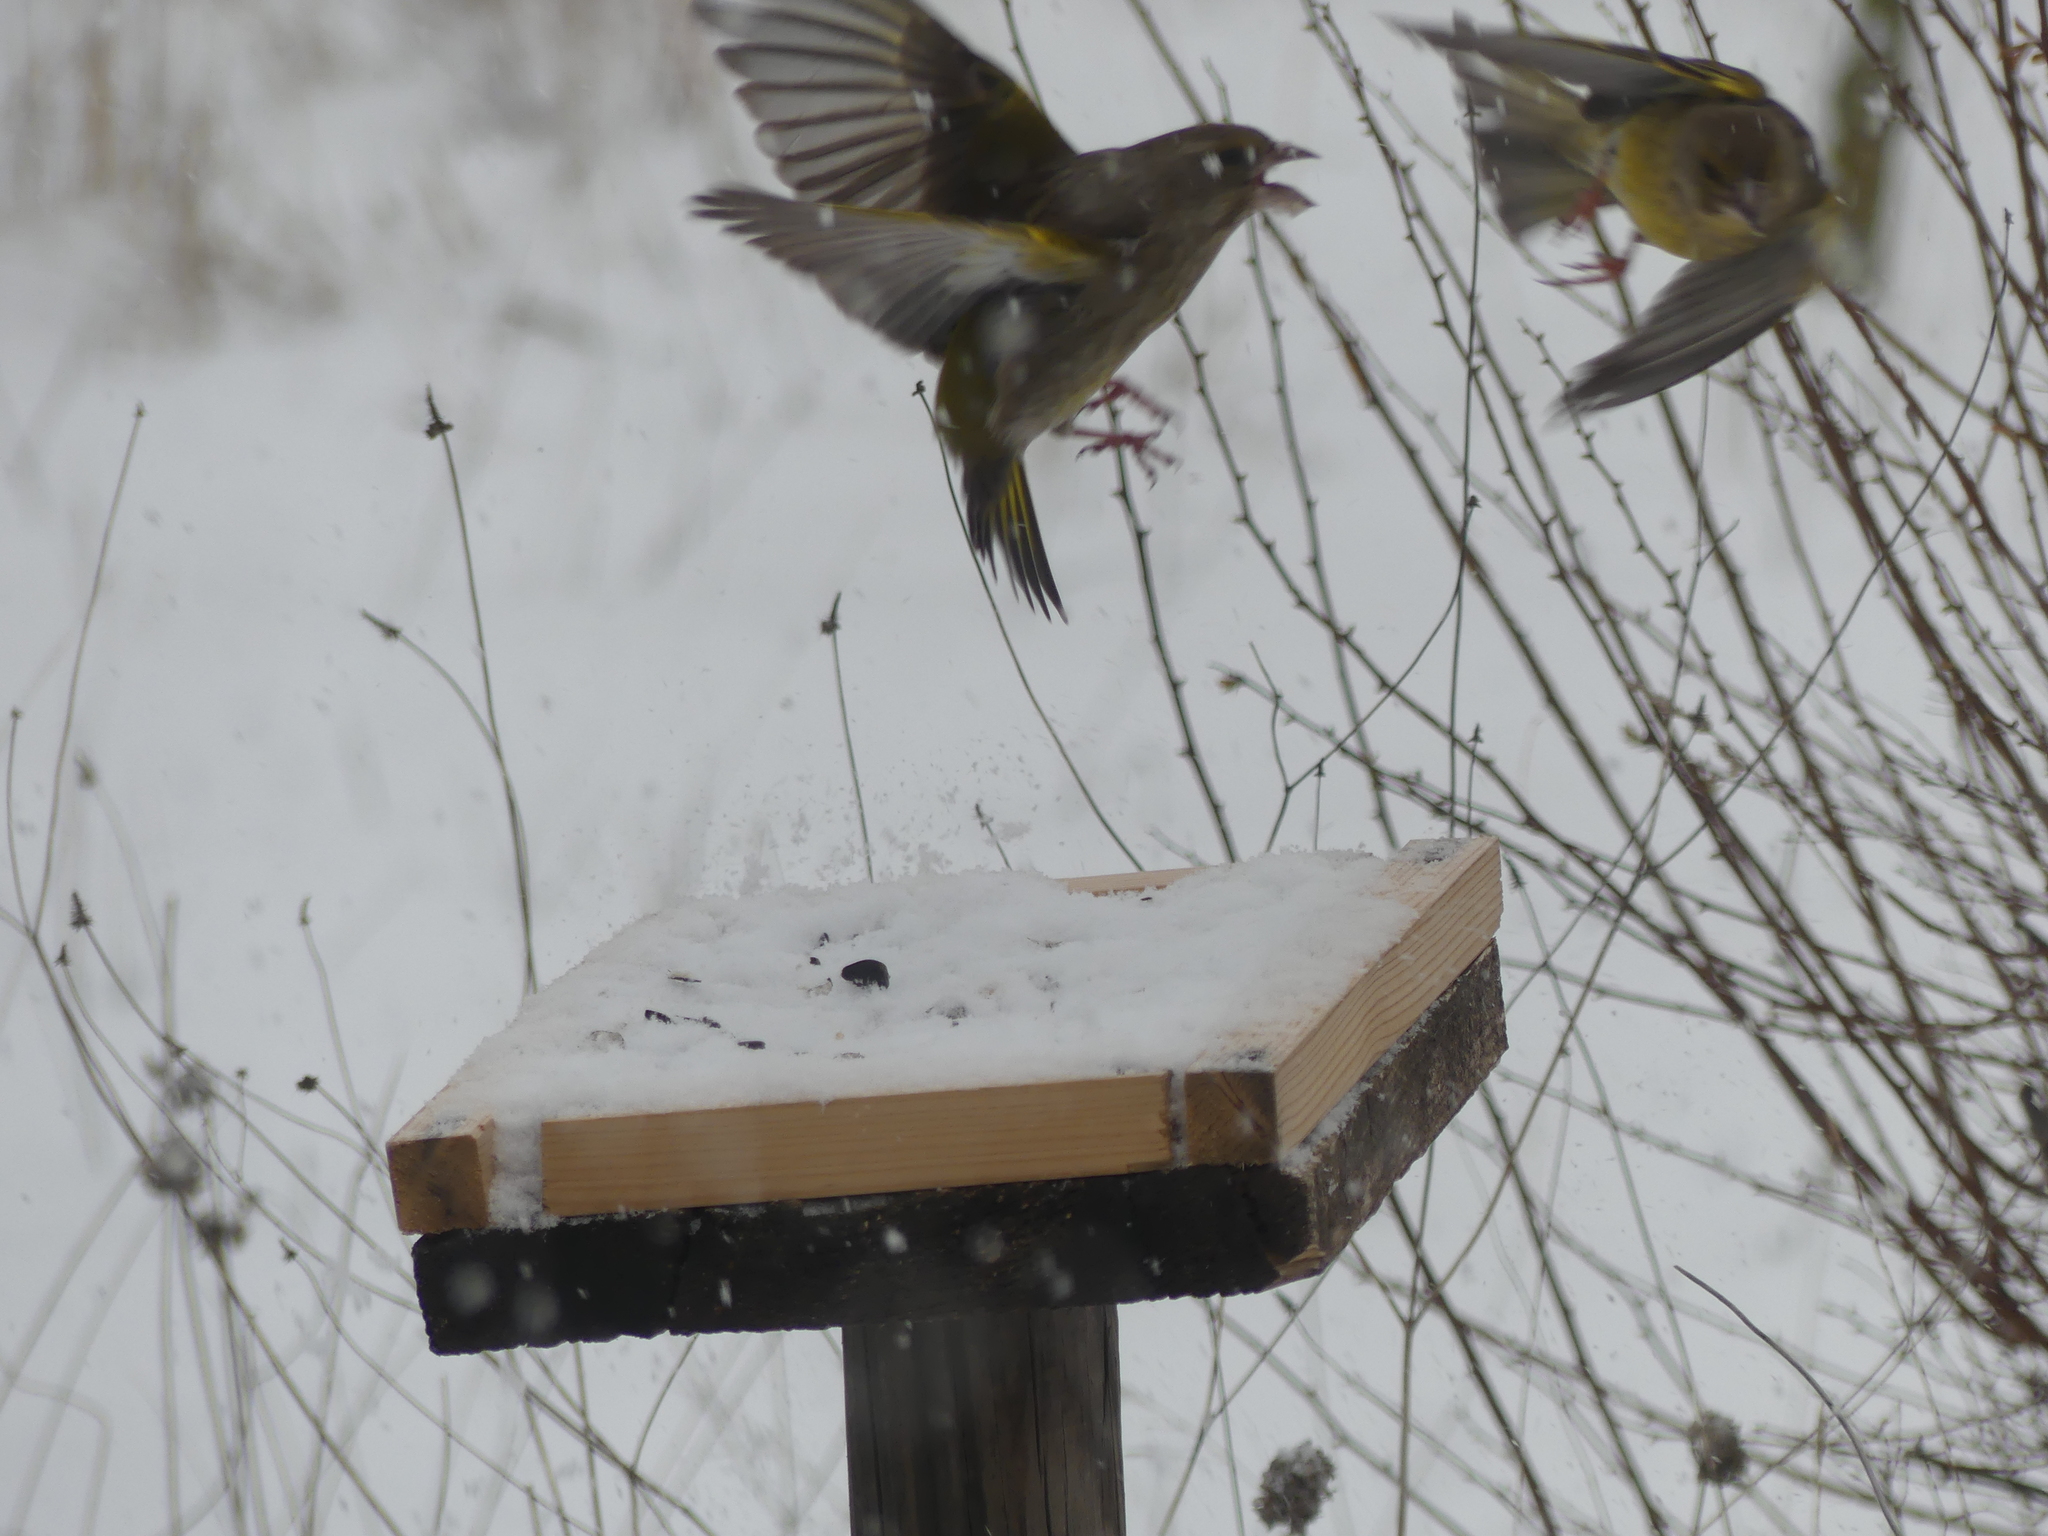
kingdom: Plantae
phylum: Tracheophyta
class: Liliopsida
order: Poales
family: Poaceae
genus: Chloris
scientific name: Chloris chloris
